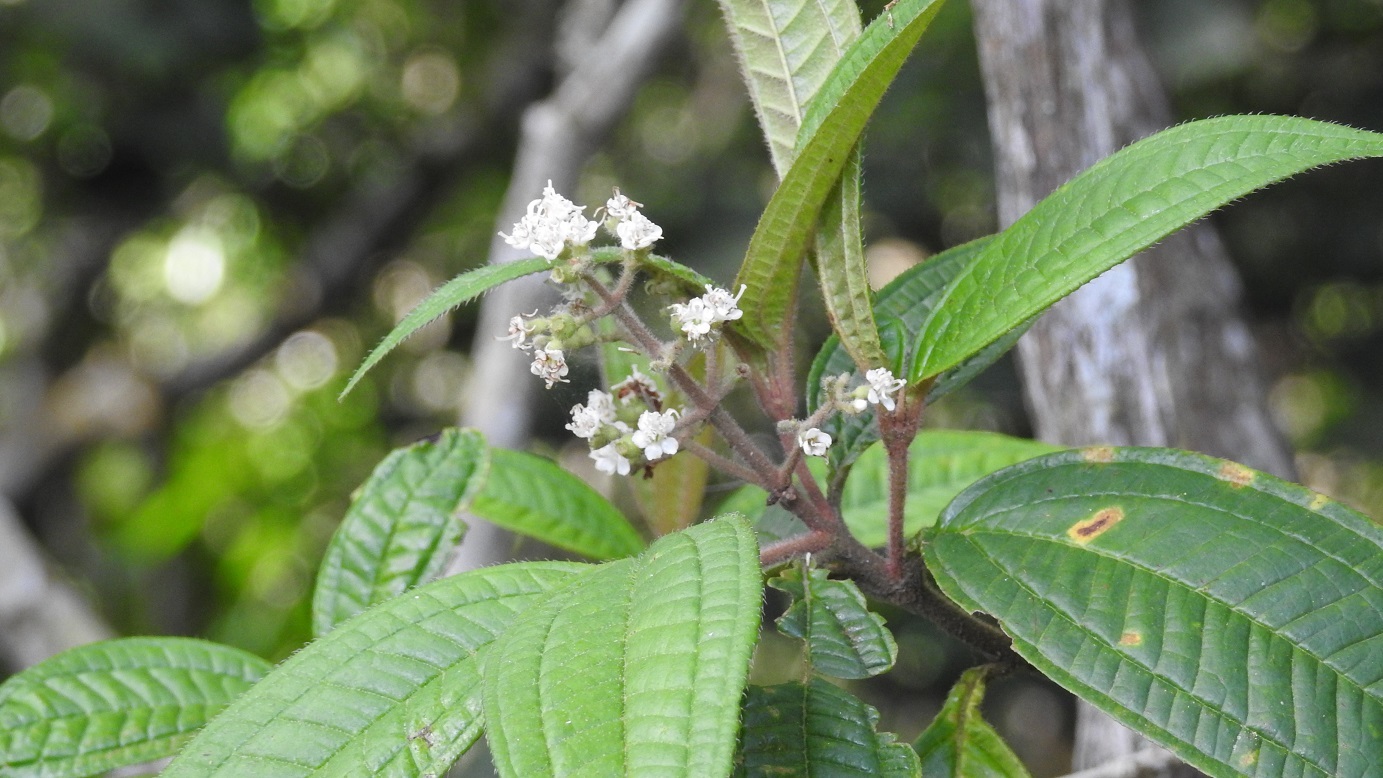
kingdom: Plantae
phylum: Tracheophyta
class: Magnoliopsida
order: Myrtales
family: Melastomataceae
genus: Miconia
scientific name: Miconia ibaguensis
